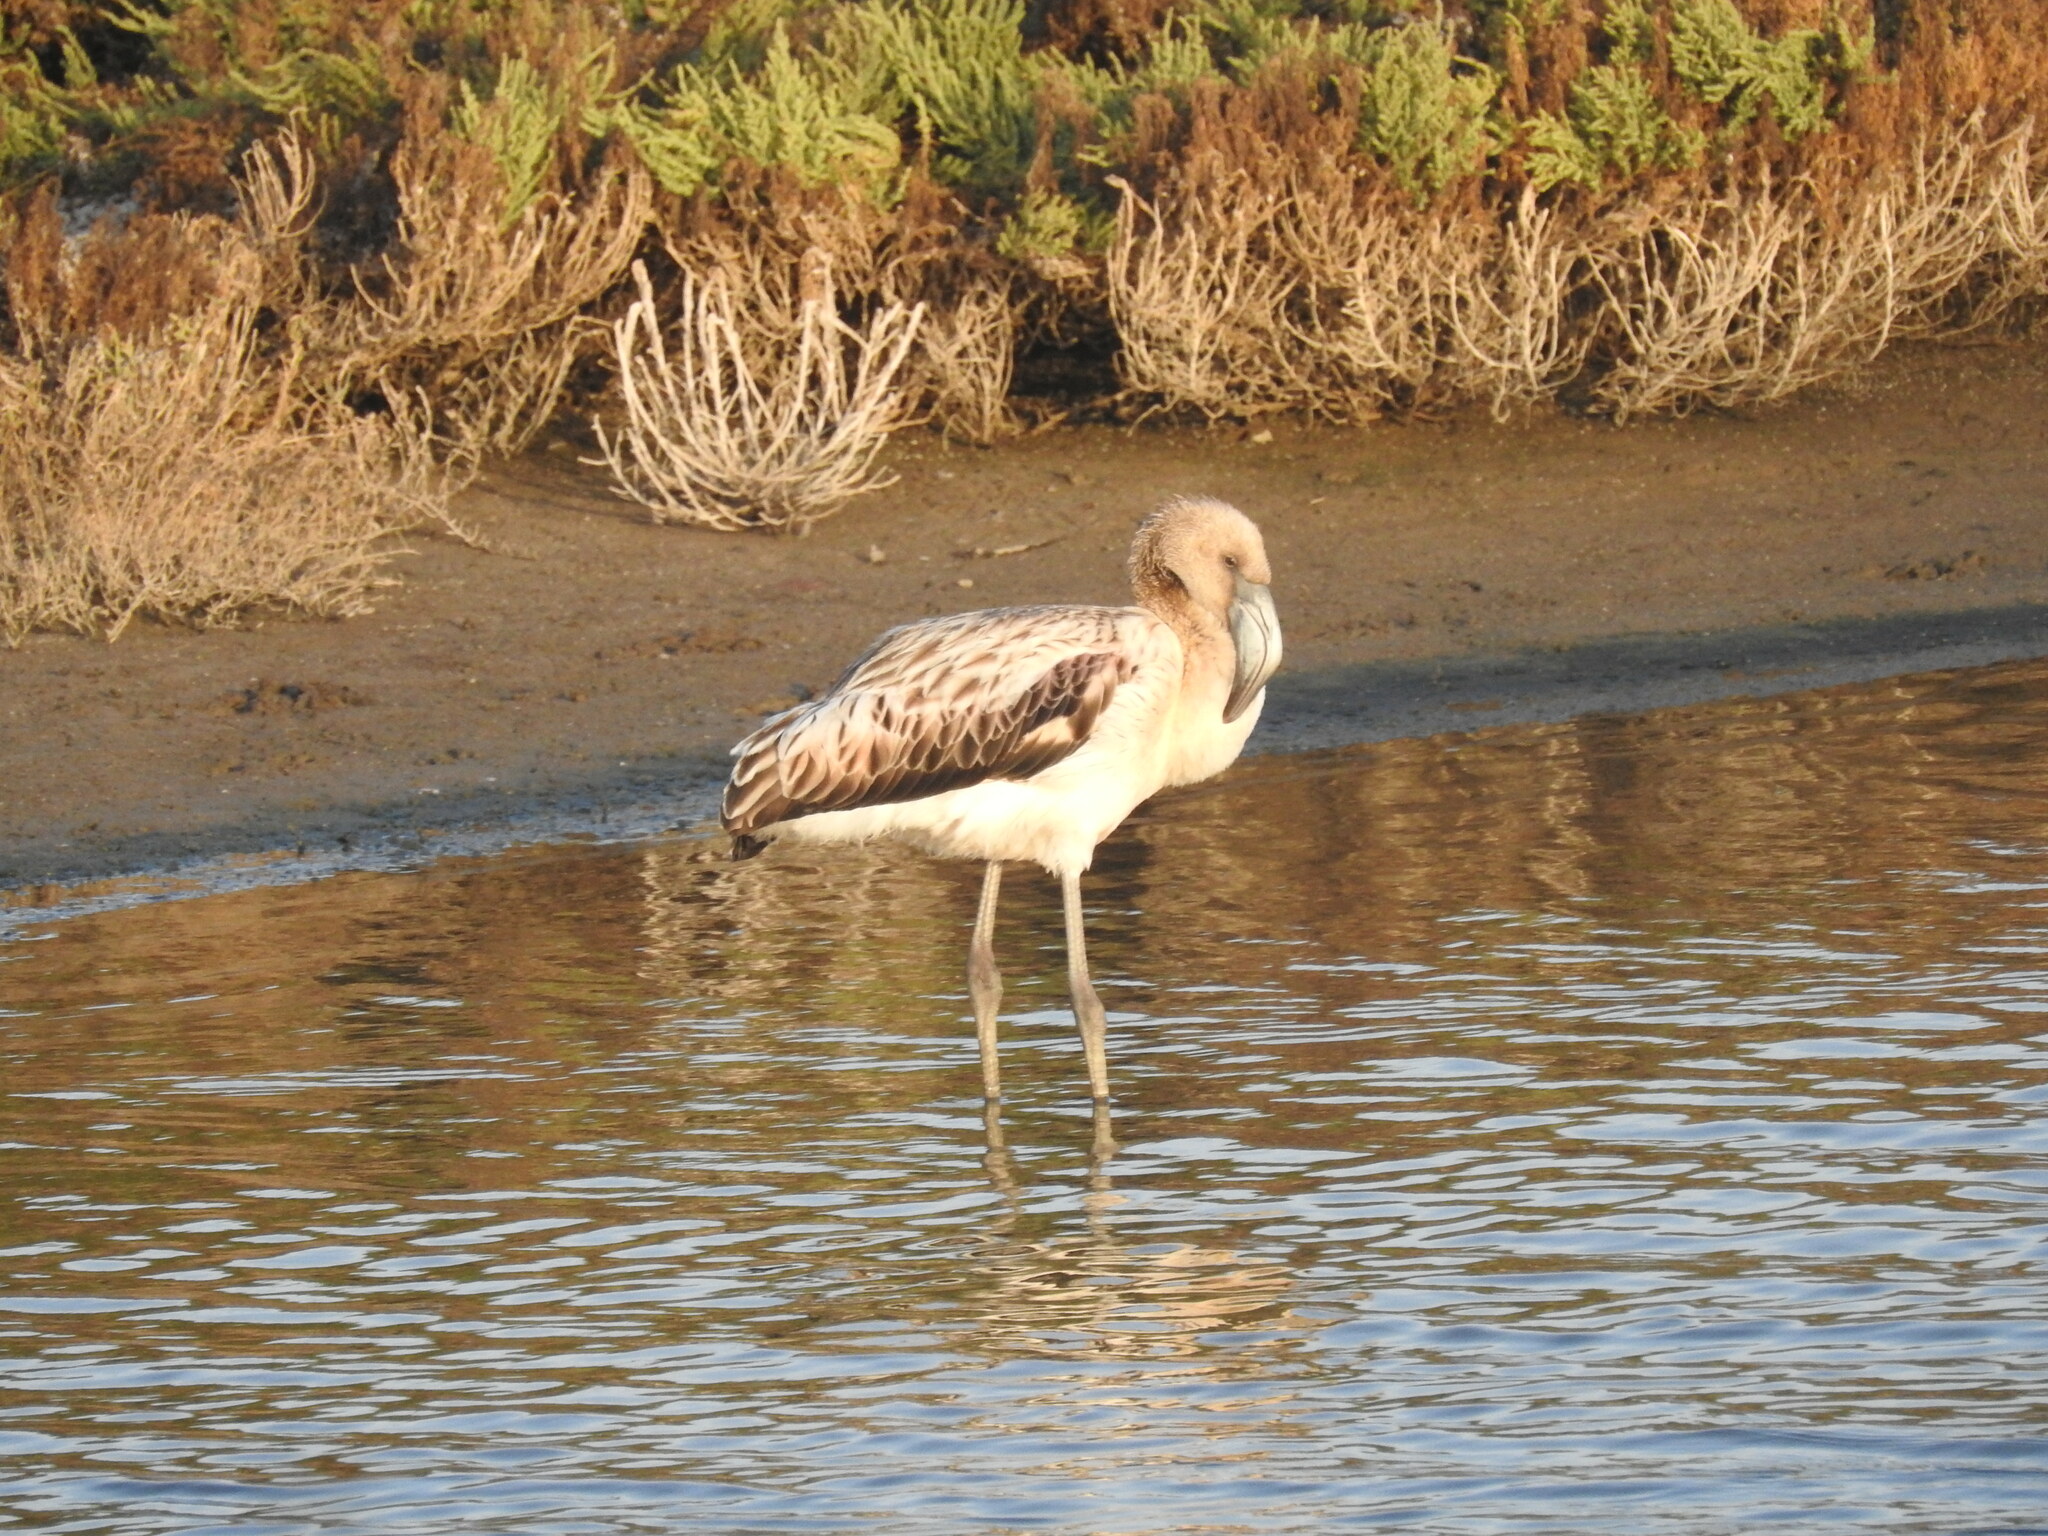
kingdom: Animalia
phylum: Chordata
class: Aves
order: Phoenicopteriformes
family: Phoenicopteridae
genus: Phoenicopterus
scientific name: Phoenicopterus chilensis
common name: Chilean flamingo
